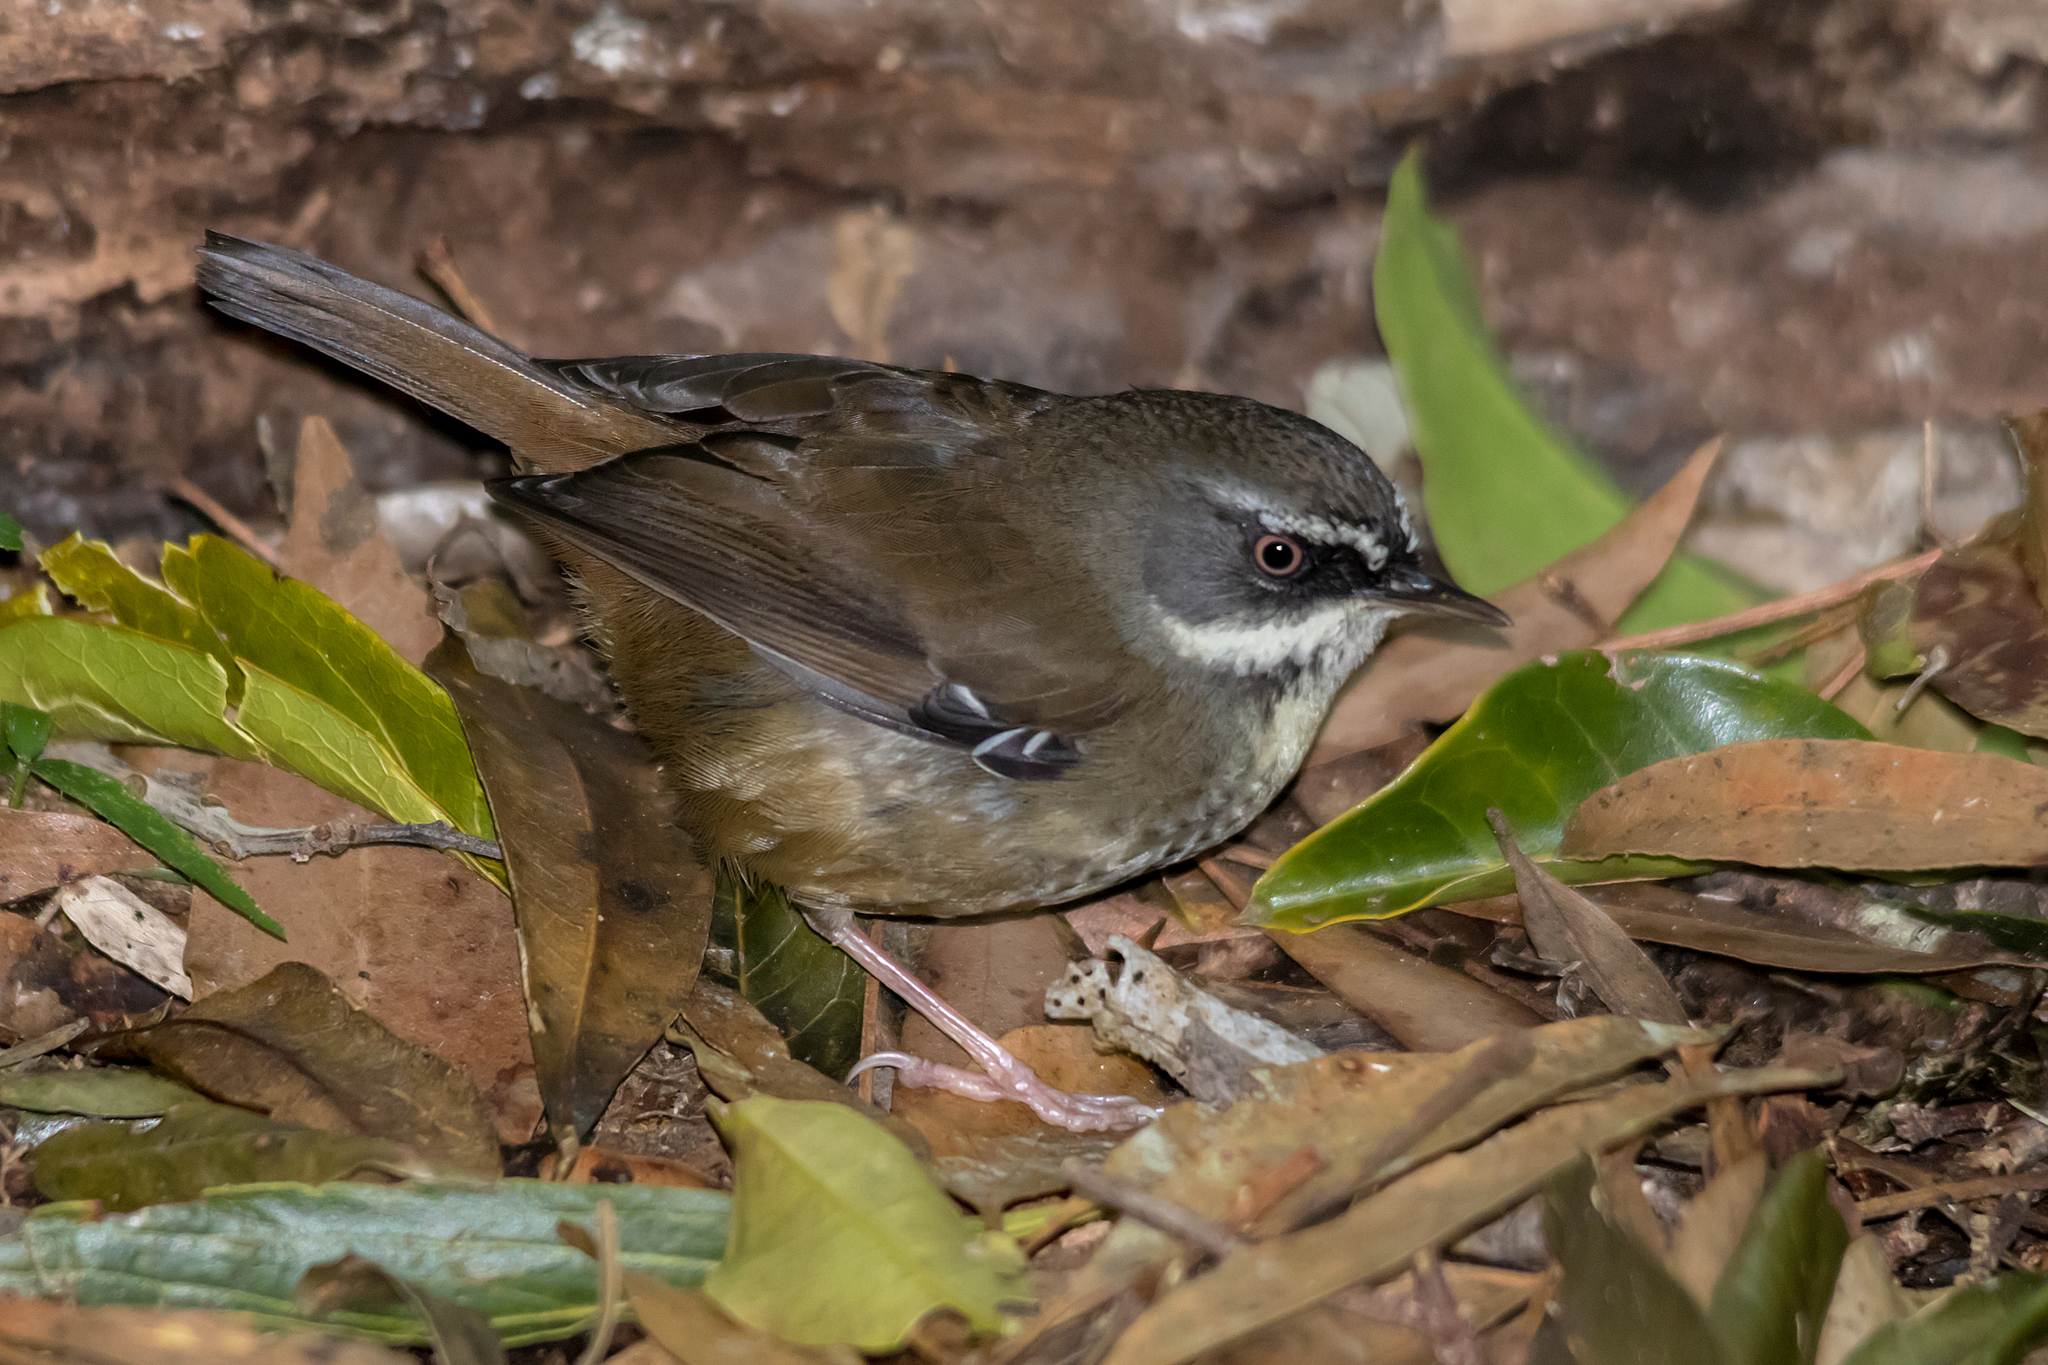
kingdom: Animalia
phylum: Chordata
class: Aves
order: Passeriformes
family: Acanthizidae
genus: Sericornis
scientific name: Sericornis frontalis
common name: White-browed scrubwren
